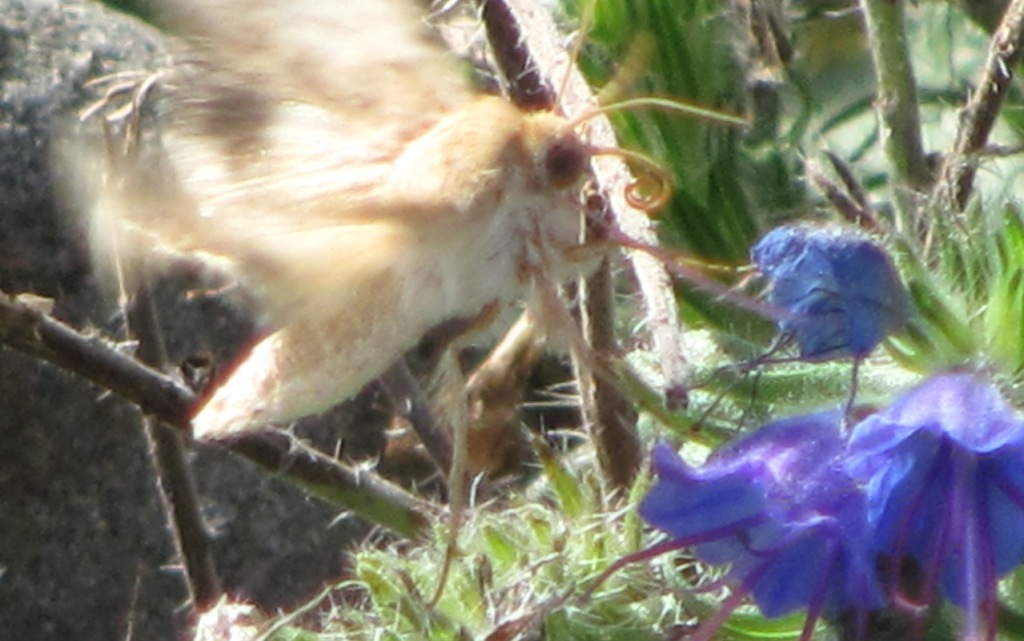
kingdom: Animalia
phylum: Arthropoda
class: Insecta
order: Lepidoptera
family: Noctuidae
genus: Helicoverpa
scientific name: Helicoverpa armigera
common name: Cotton bollworm
